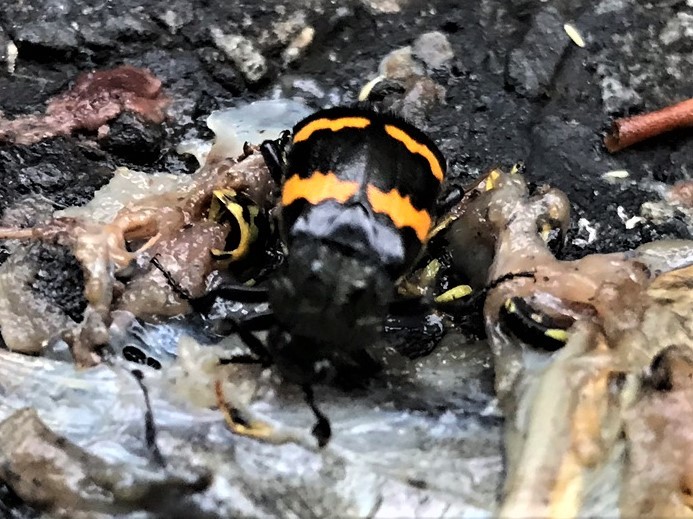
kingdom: Animalia
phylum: Arthropoda
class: Insecta
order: Coleoptera
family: Staphylinidae
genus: Nicrophorus
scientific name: Nicrophorus tomentosus
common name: Tomentose burying beetle
